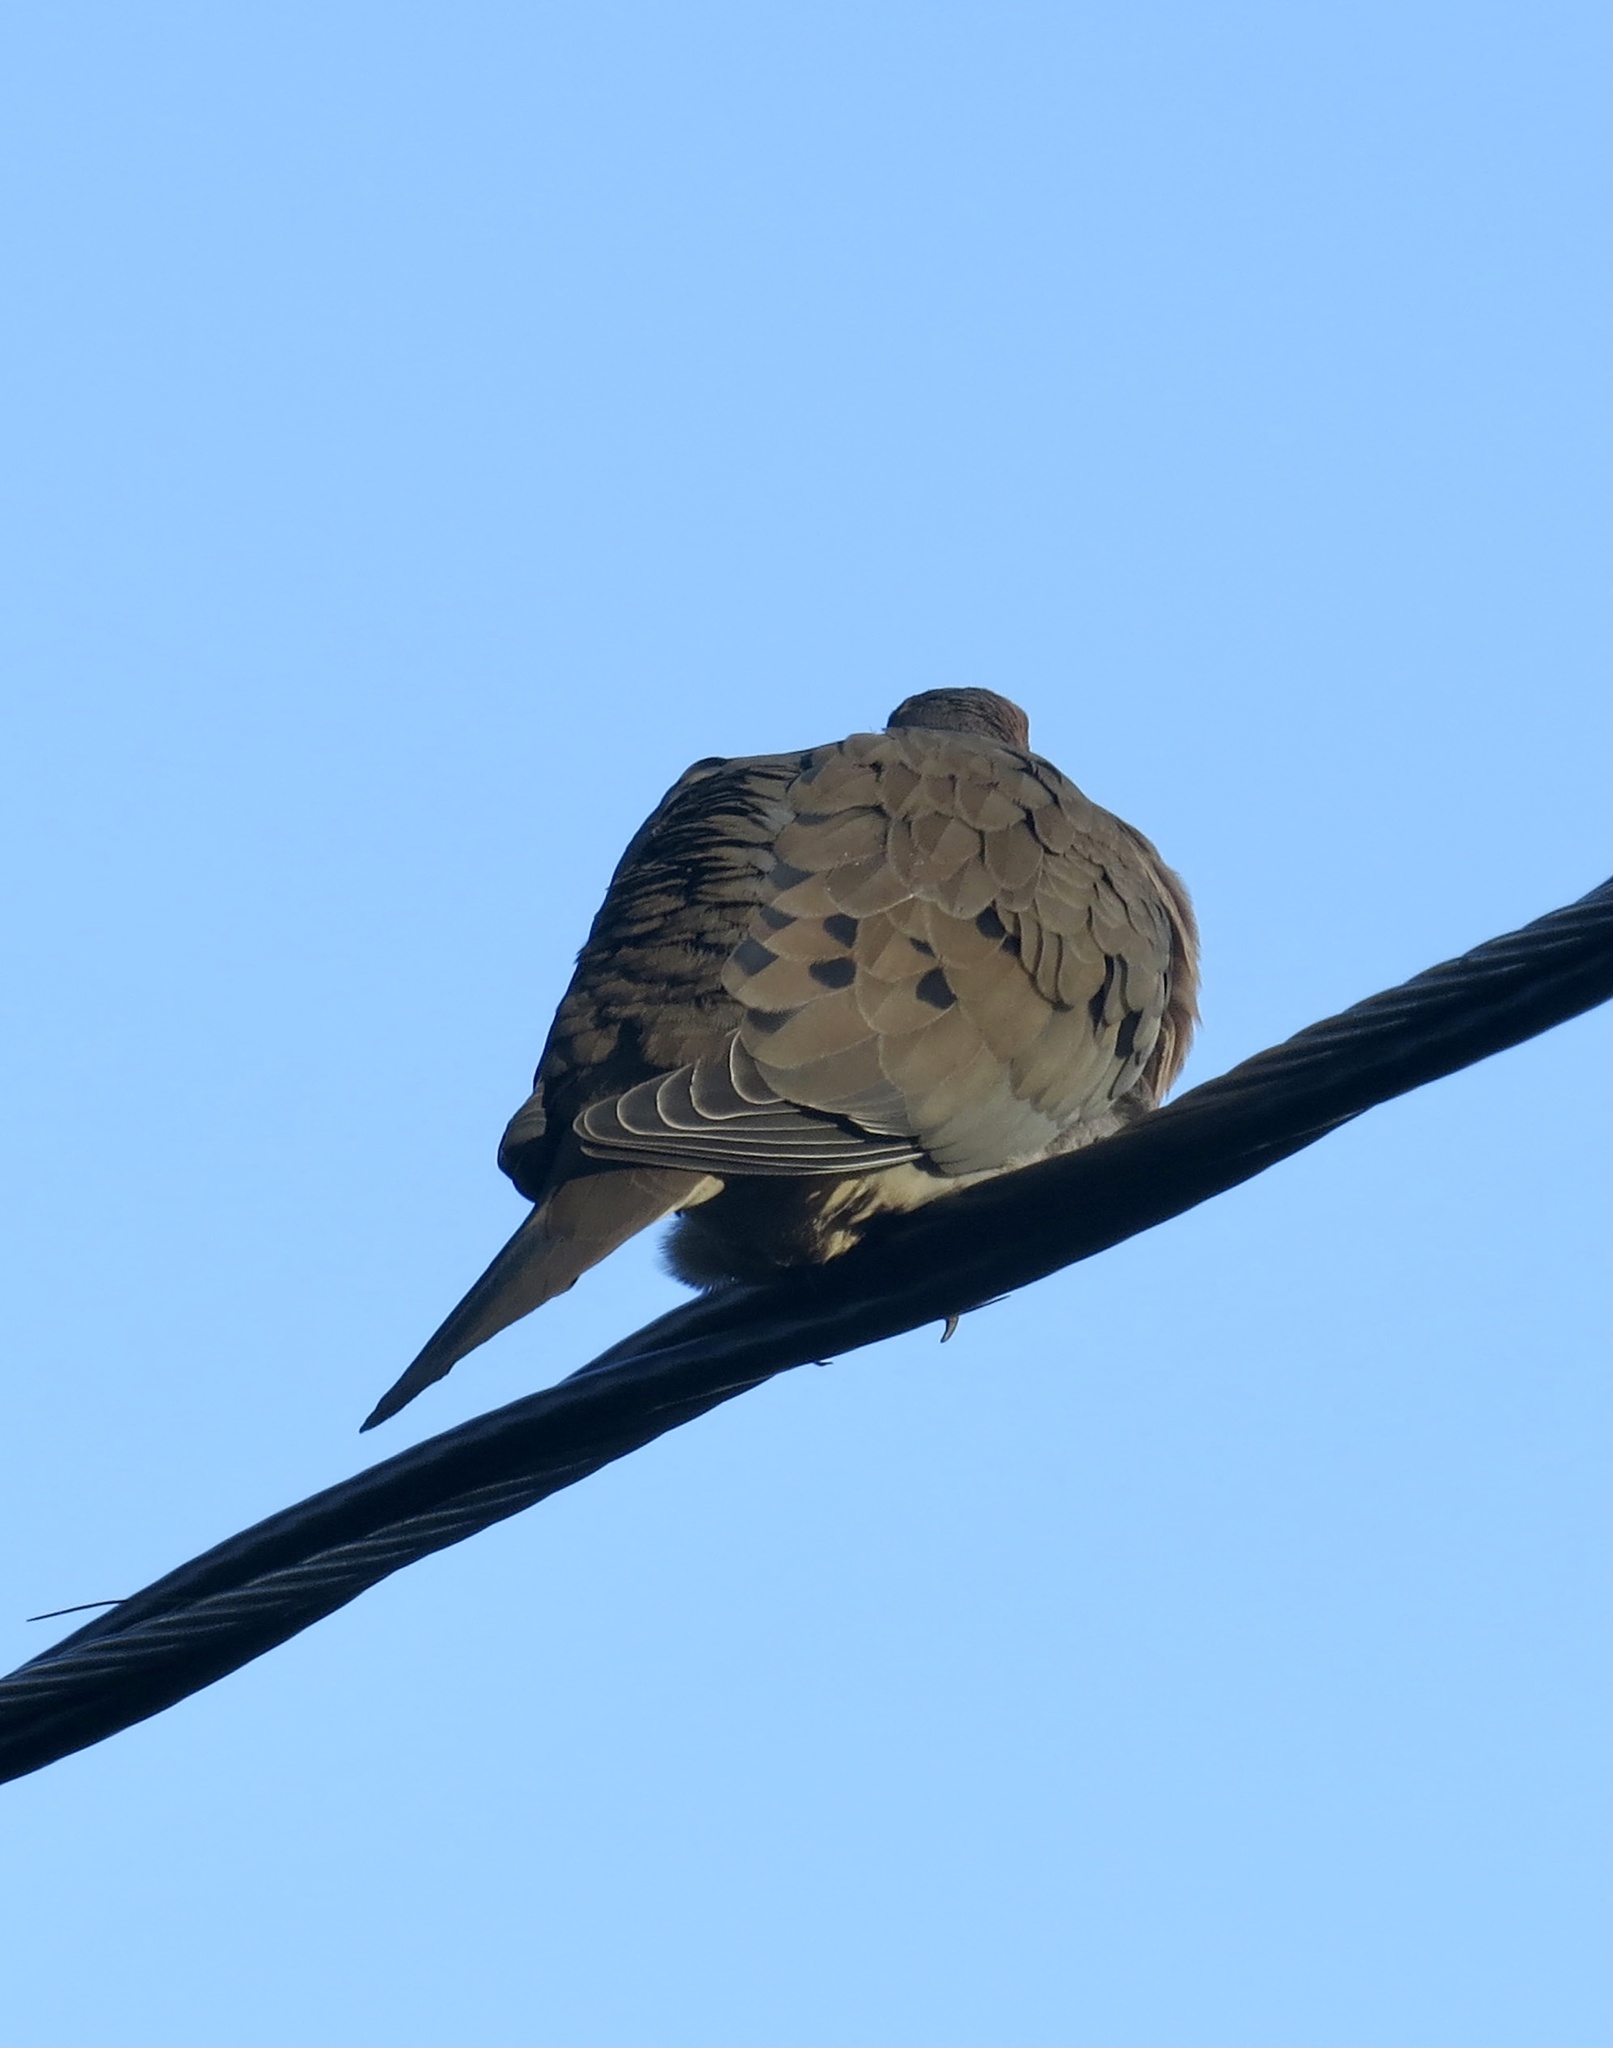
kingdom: Animalia
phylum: Chordata
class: Aves
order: Columbiformes
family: Columbidae
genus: Zenaida
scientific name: Zenaida macroura
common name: Mourning dove
